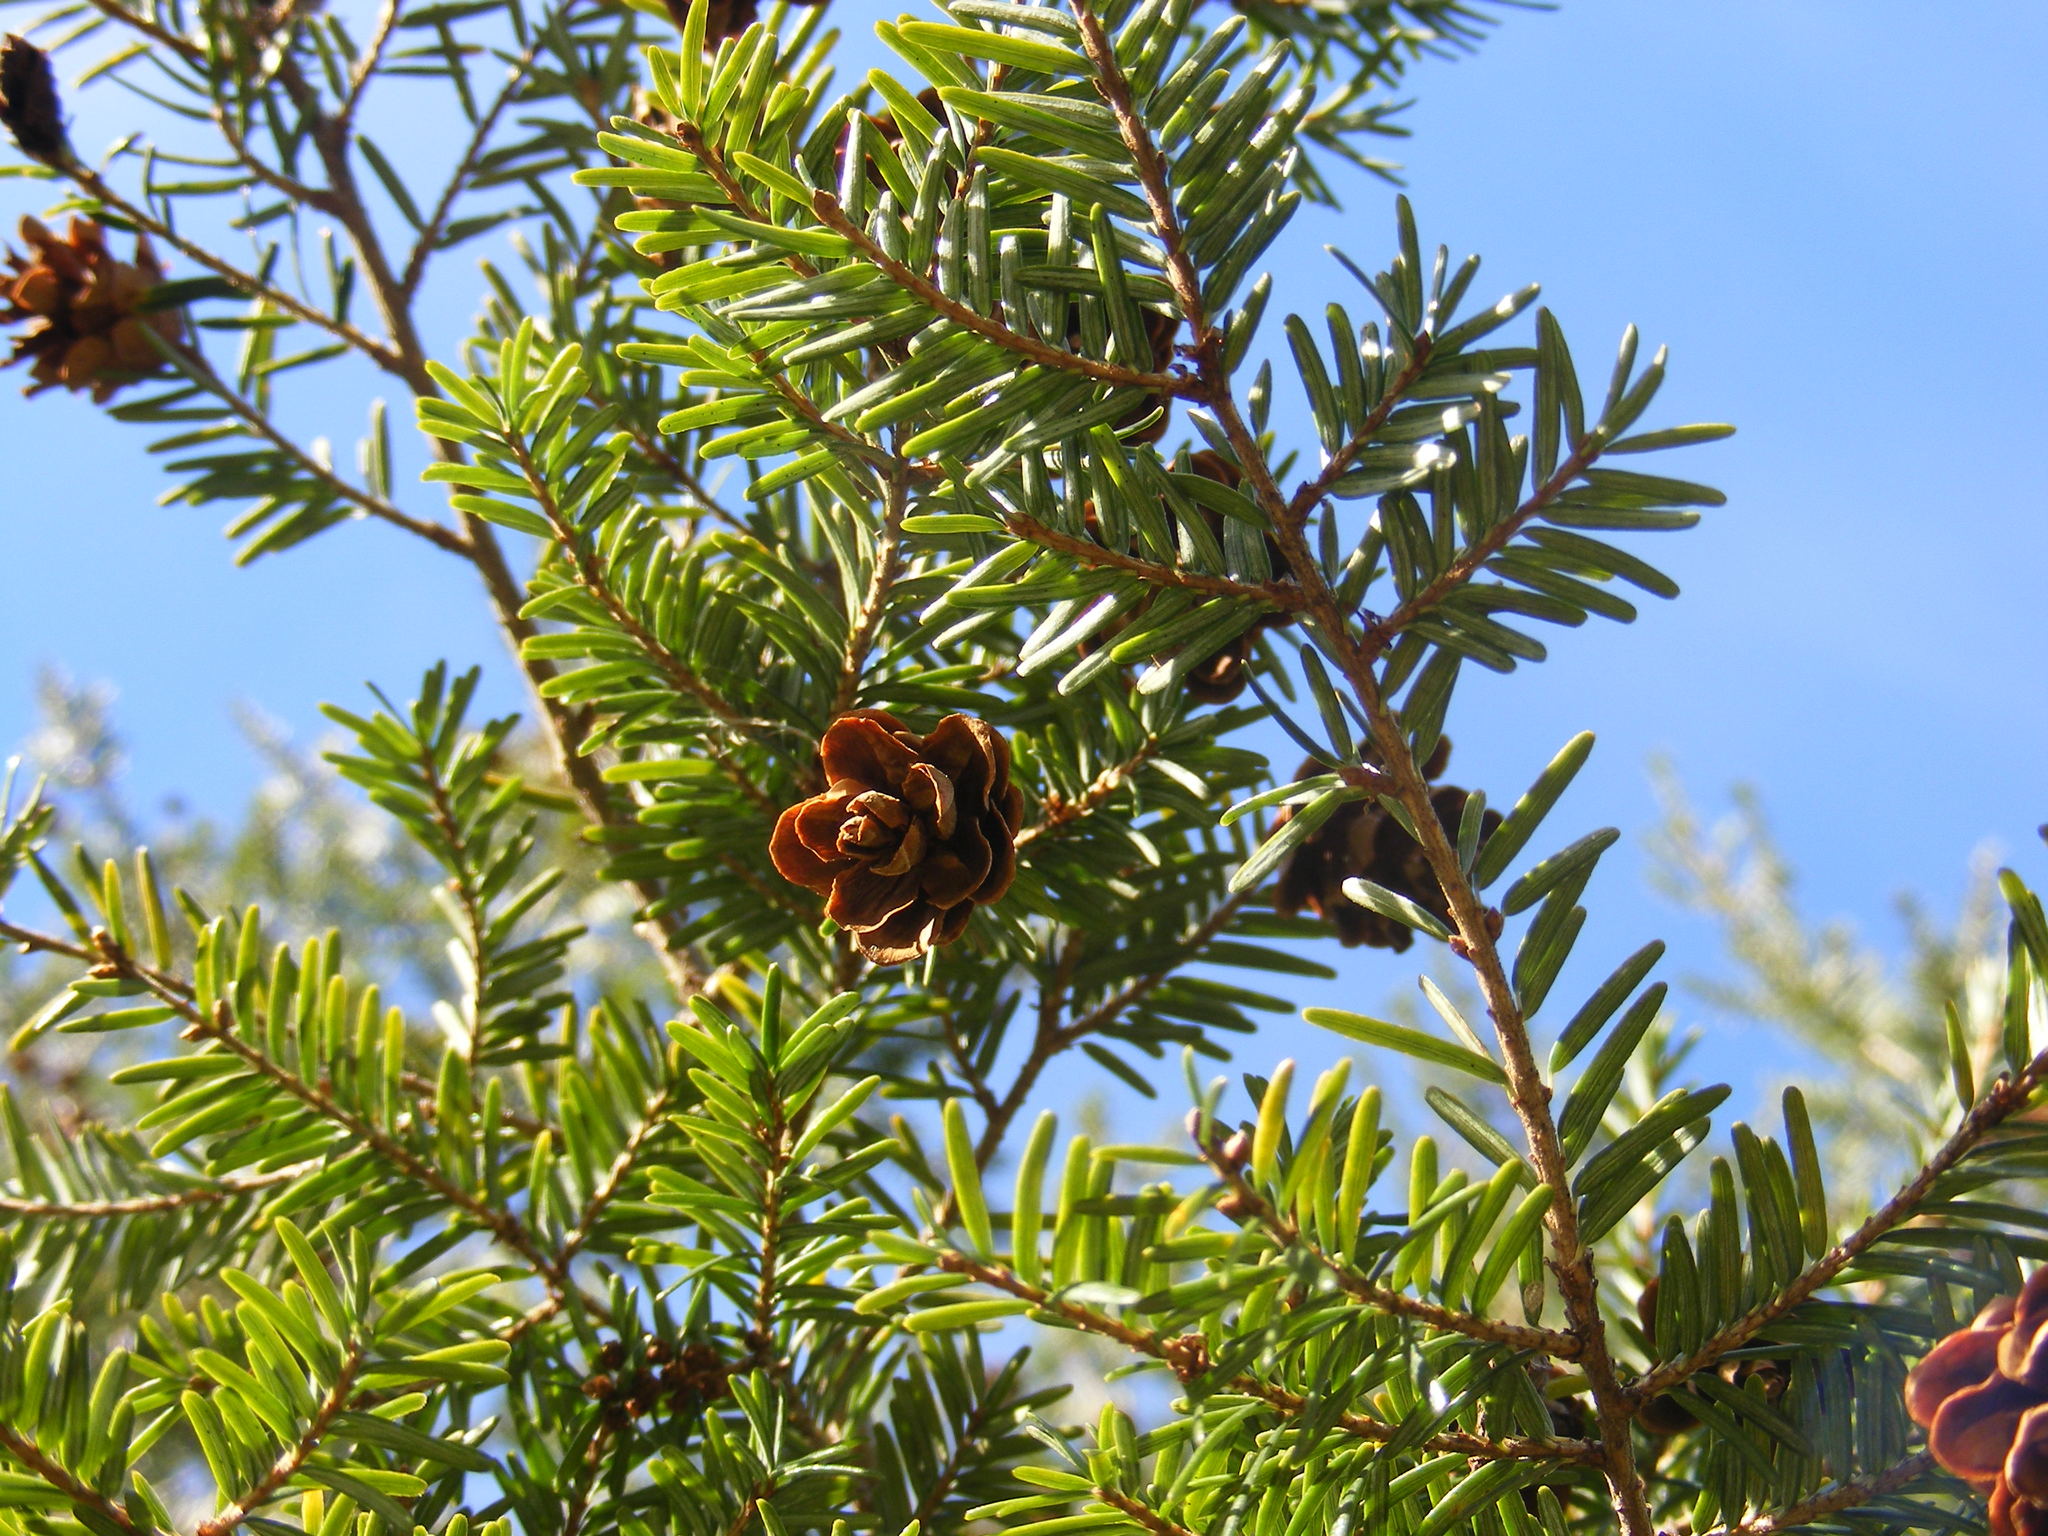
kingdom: Plantae
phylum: Tracheophyta
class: Pinopsida
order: Pinales
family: Pinaceae
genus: Tsuga
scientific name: Tsuga canadensis
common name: Eastern hemlock
